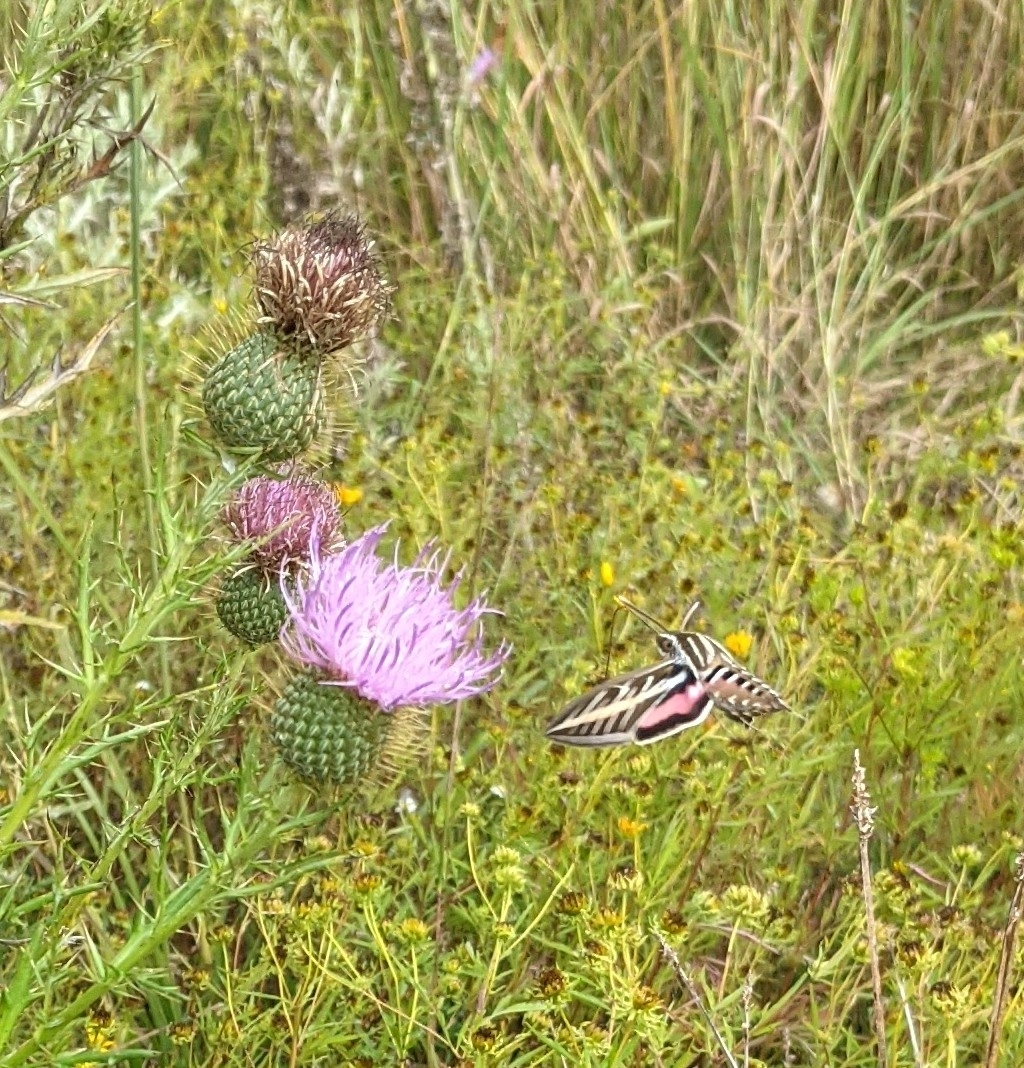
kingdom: Animalia
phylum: Arthropoda
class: Insecta
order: Lepidoptera
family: Sphingidae
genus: Hyles
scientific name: Hyles lineata
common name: White-lined sphinx
